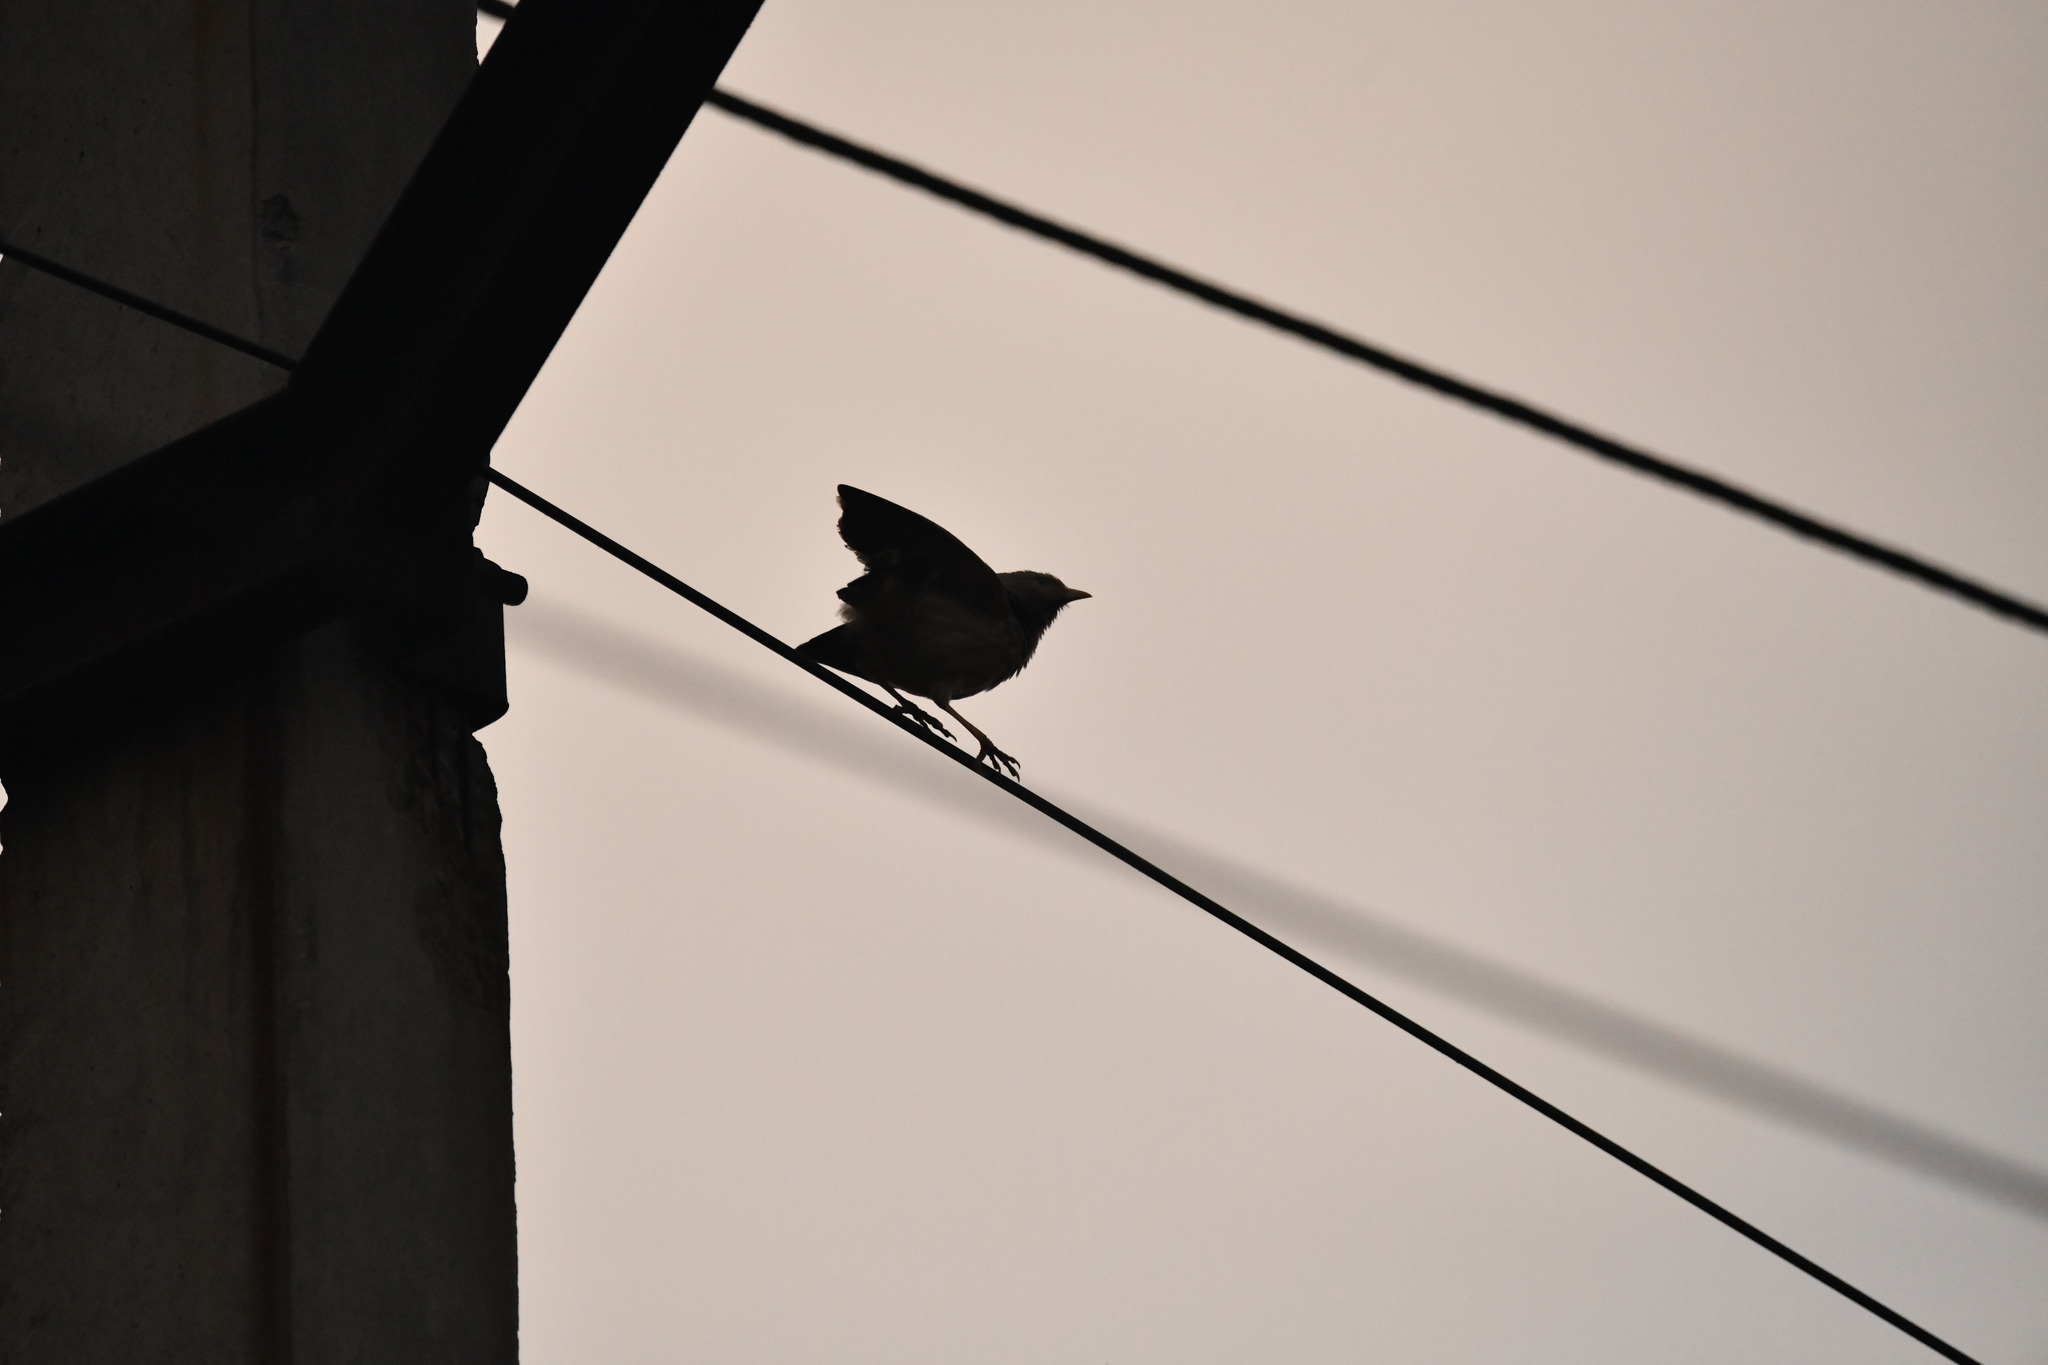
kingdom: Animalia
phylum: Chordata
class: Aves
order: Passeriformes
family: Leiothrichidae
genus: Turdoides
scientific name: Turdoides affinis
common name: Yellow-billed babbler
